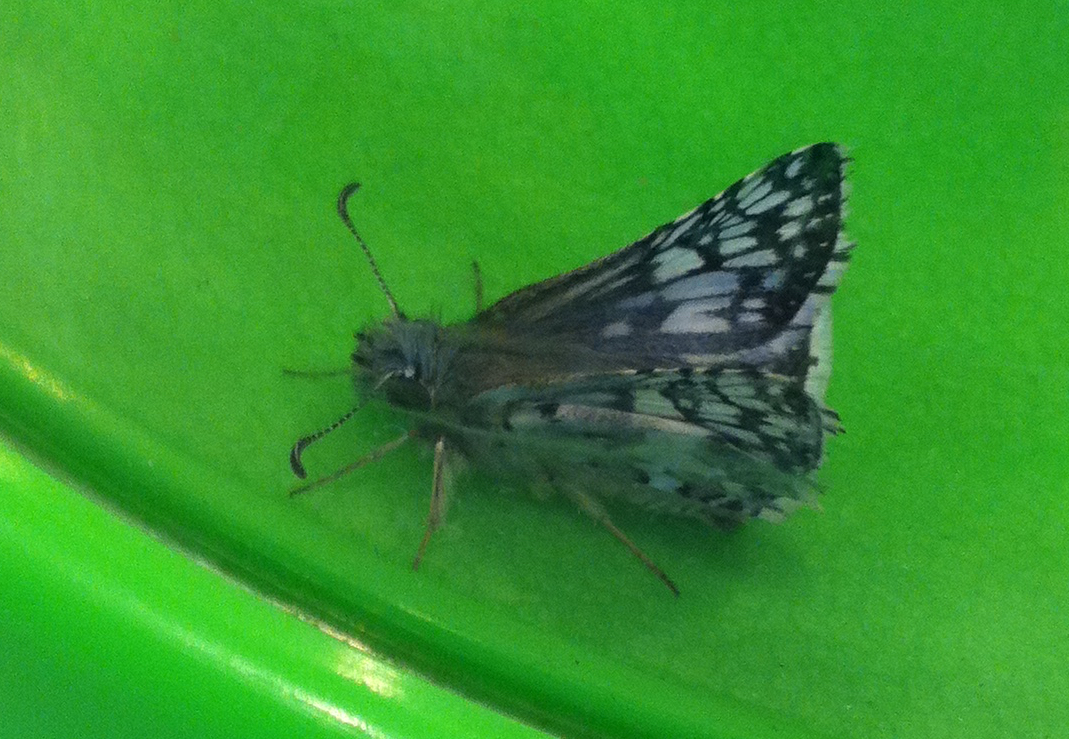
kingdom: Animalia
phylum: Arthropoda
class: Insecta
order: Lepidoptera
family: Hesperiidae
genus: Burnsius
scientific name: Burnsius communis
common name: Common checkered-skipper
